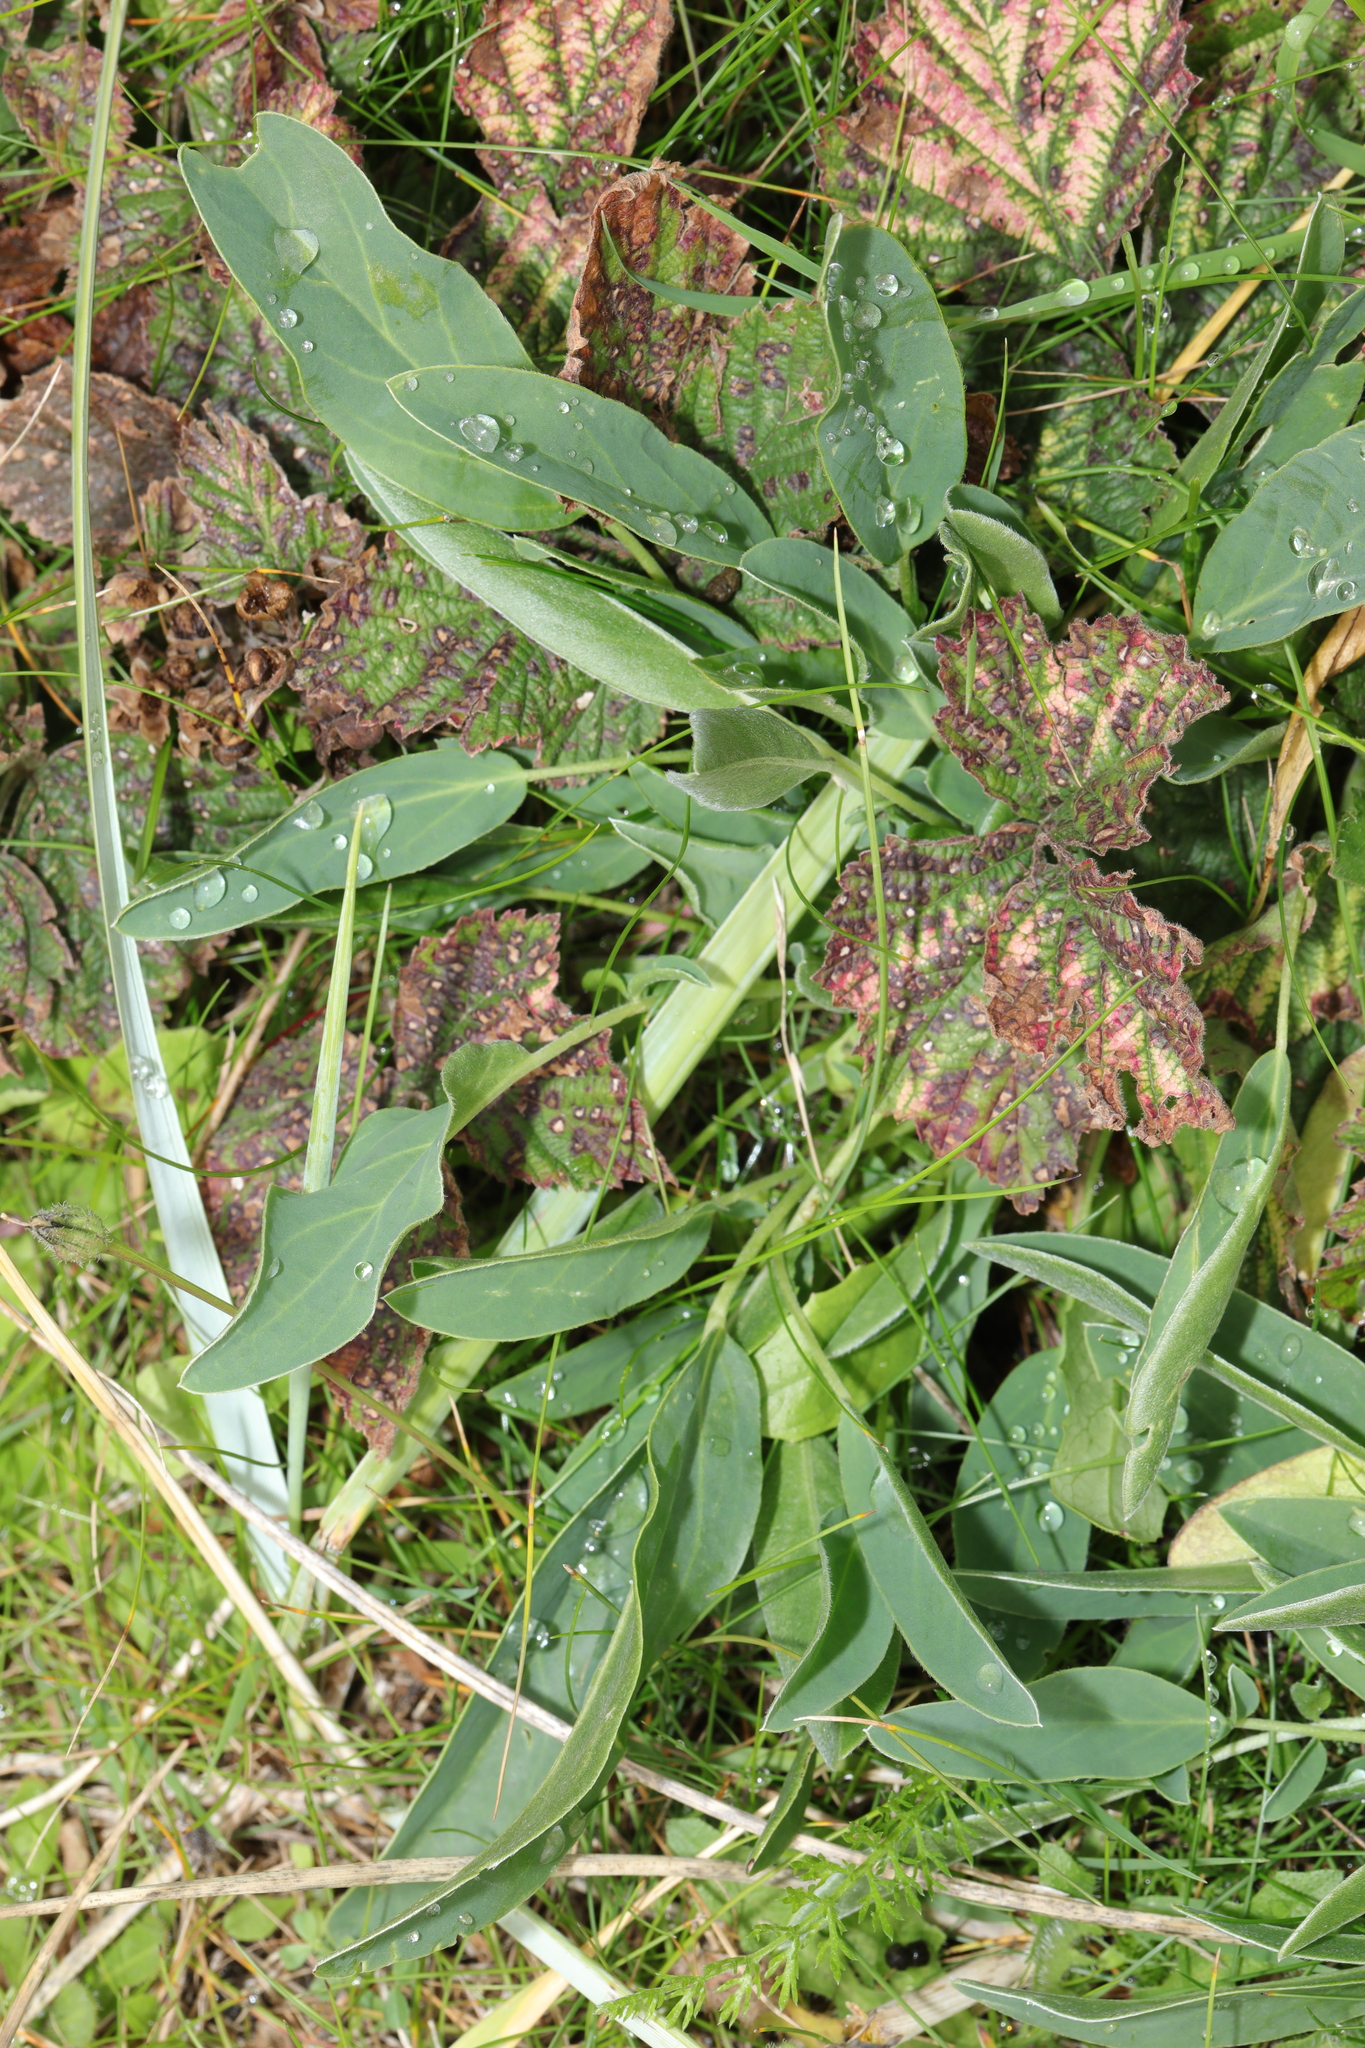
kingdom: Plantae
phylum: Tracheophyta
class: Magnoliopsida
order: Fabales
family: Fabaceae
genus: Anthyllis
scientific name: Anthyllis vulneraria
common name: Kidney vetch
